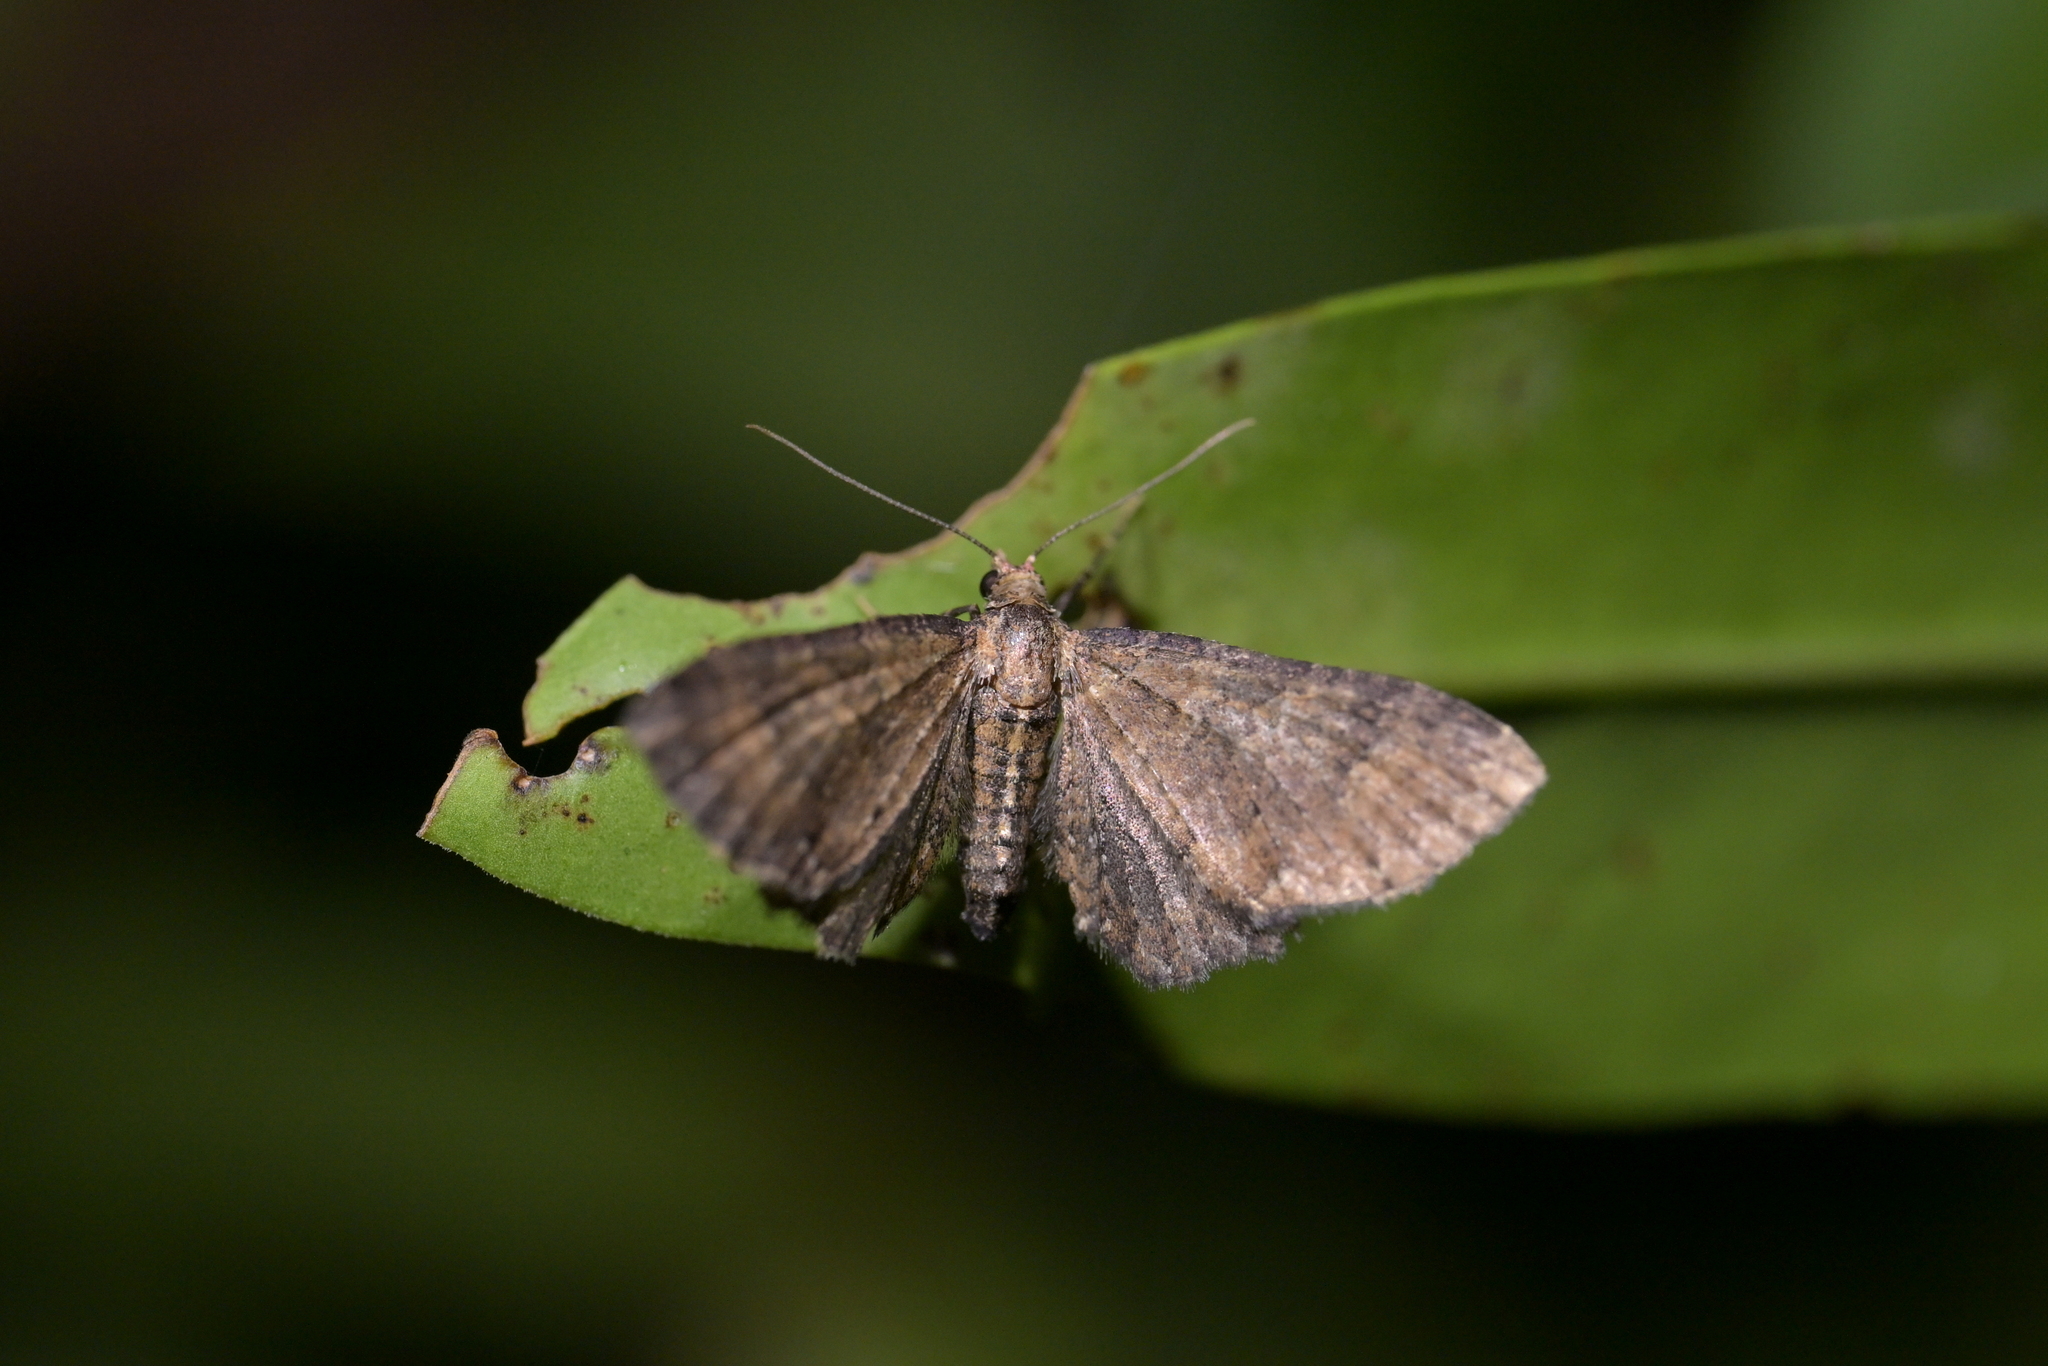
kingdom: Animalia
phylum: Arthropoda
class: Insecta
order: Lepidoptera
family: Geometridae
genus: Pasiphila
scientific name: Pasiphila dryas
